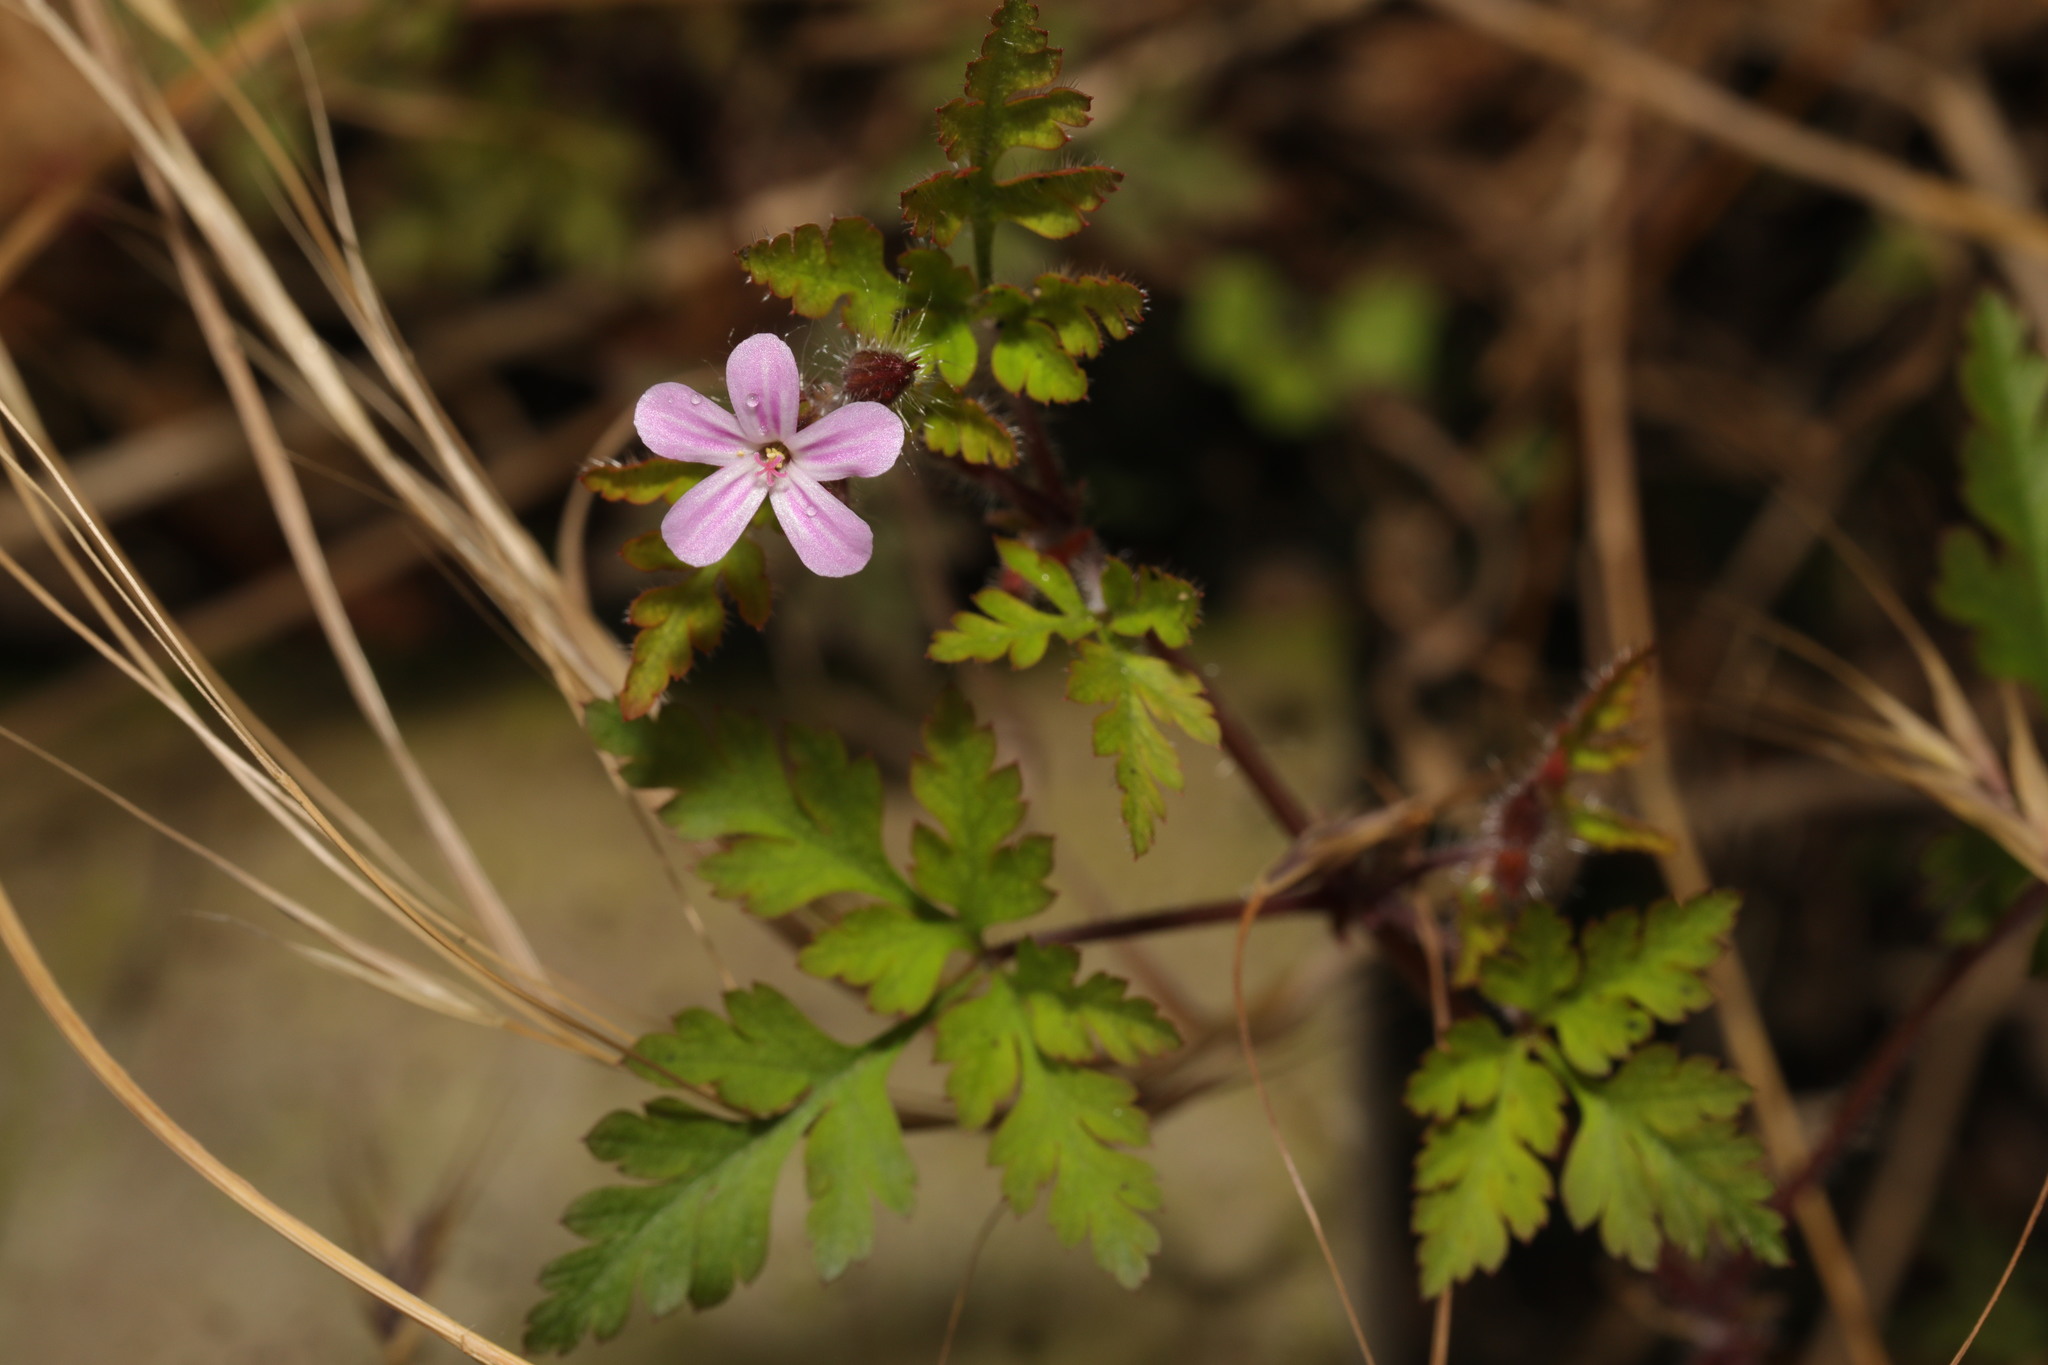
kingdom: Plantae
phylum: Tracheophyta
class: Magnoliopsida
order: Geraniales
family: Geraniaceae
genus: Geranium
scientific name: Geranium robertianum
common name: Herb-robert
